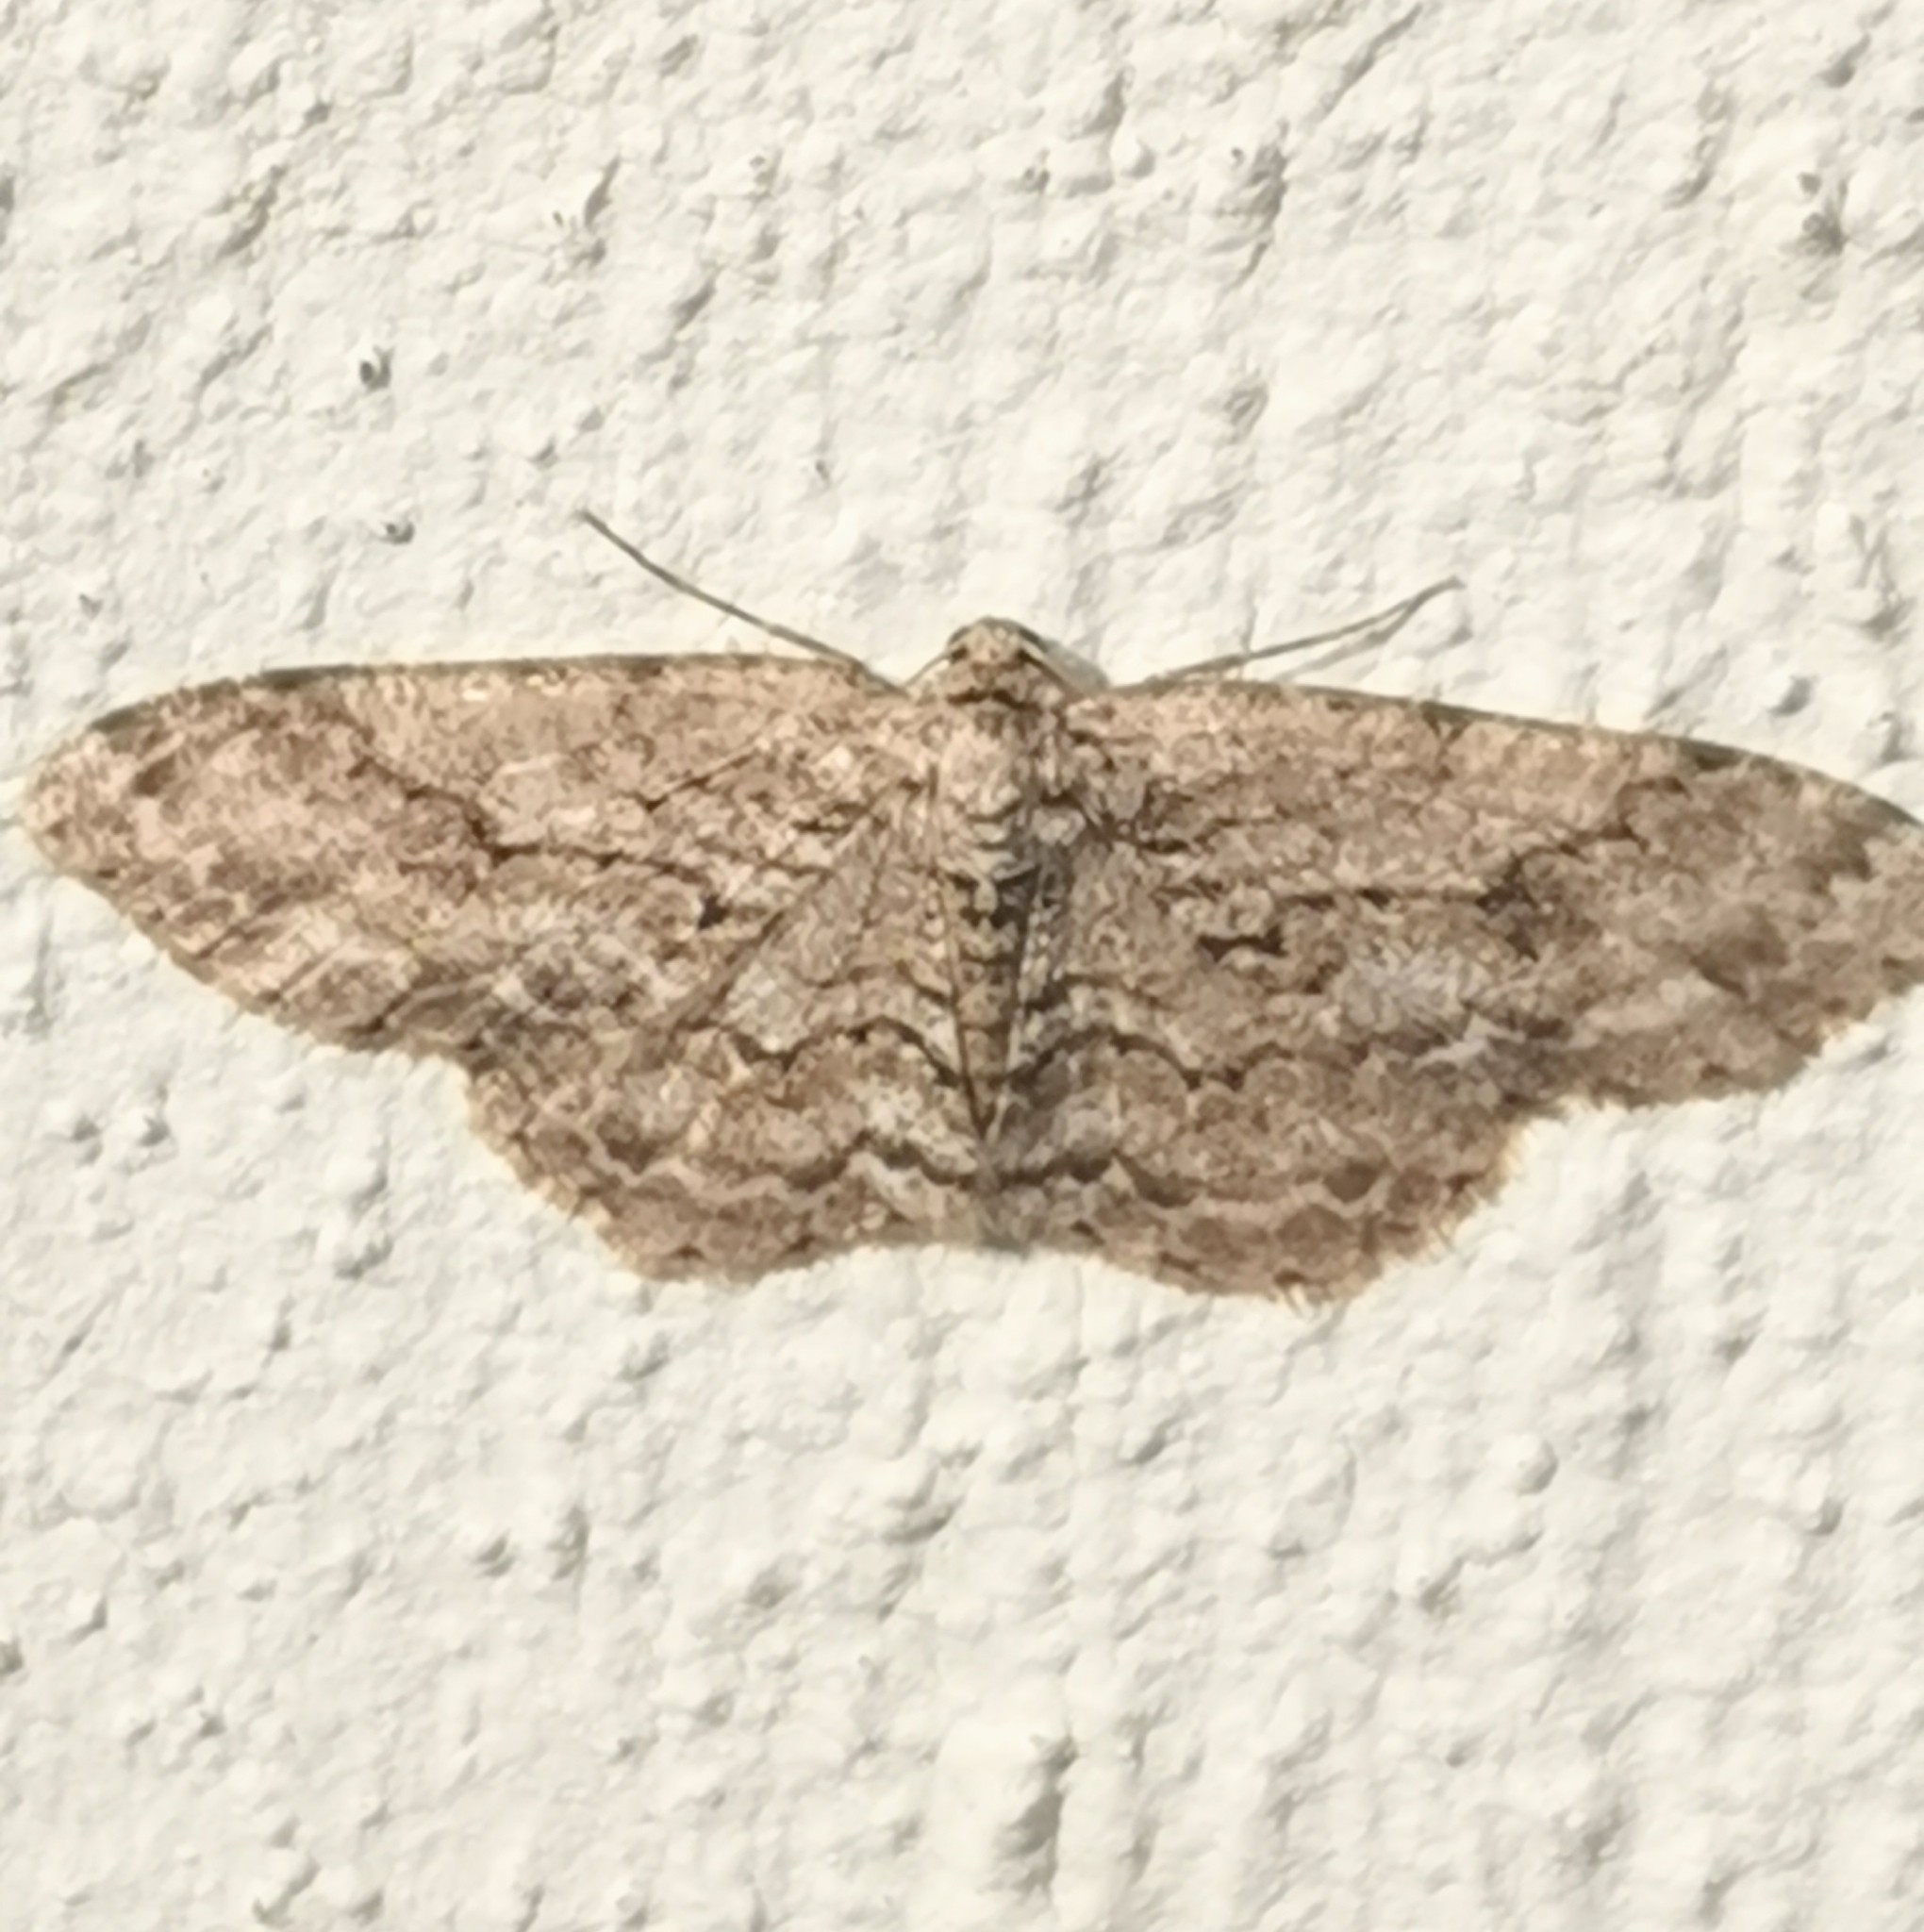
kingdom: Animalia
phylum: Arthropoda
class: Insecta
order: Lepidoptera
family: Geometridae
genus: Ectropis
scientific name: Ectropis crepuscularia
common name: Engrailed
